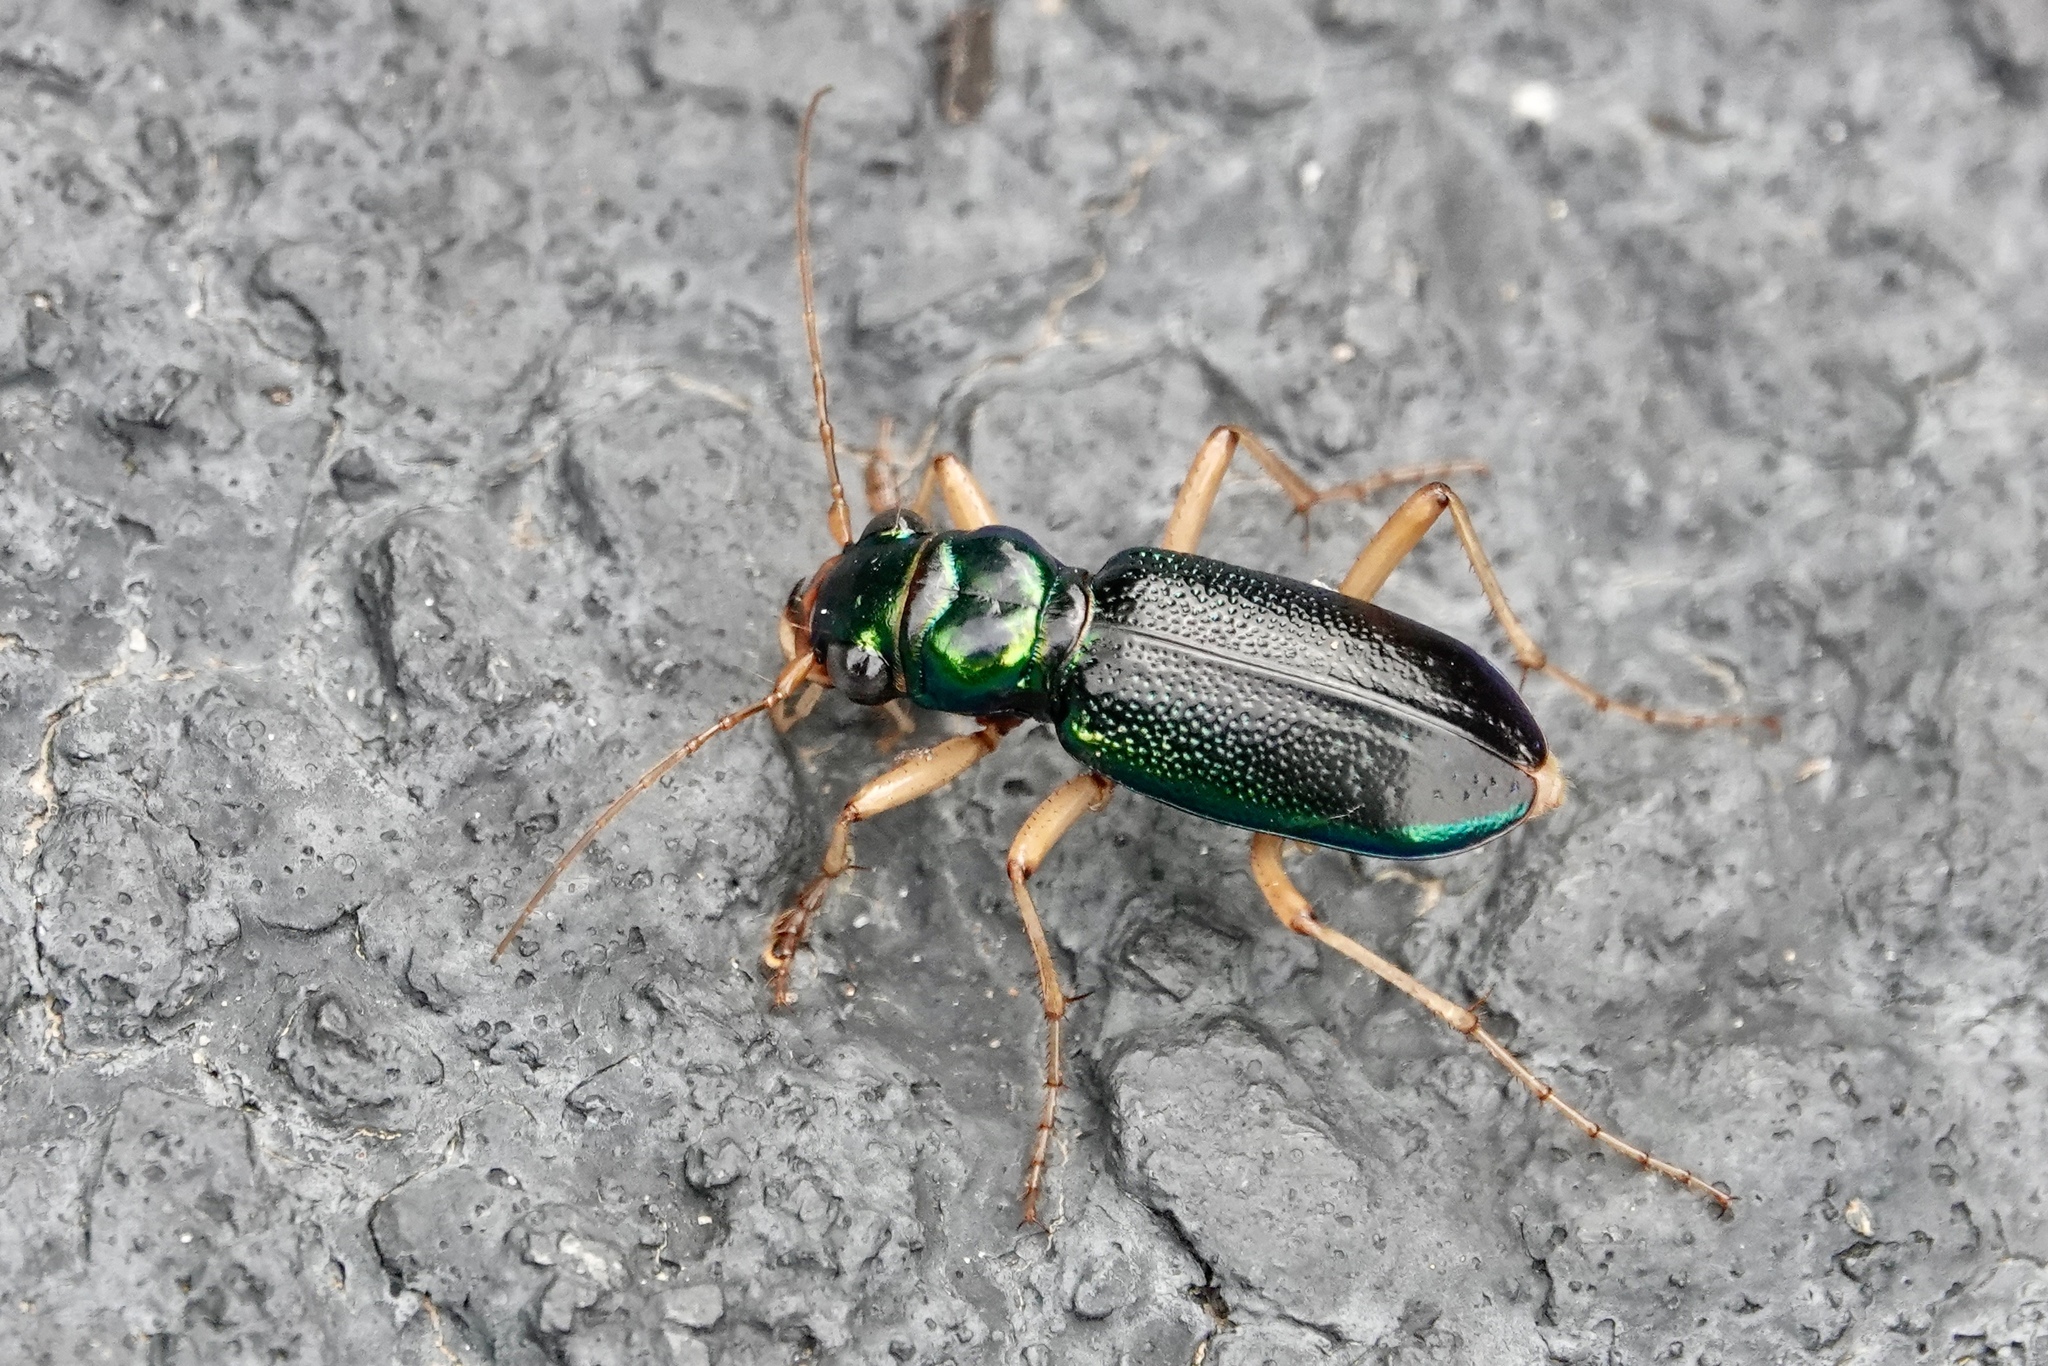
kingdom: Animalia
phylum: Arthropoda
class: Insecta
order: Coleoptera
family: Carabidae
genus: Tetracha
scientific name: Tetracha virginica
